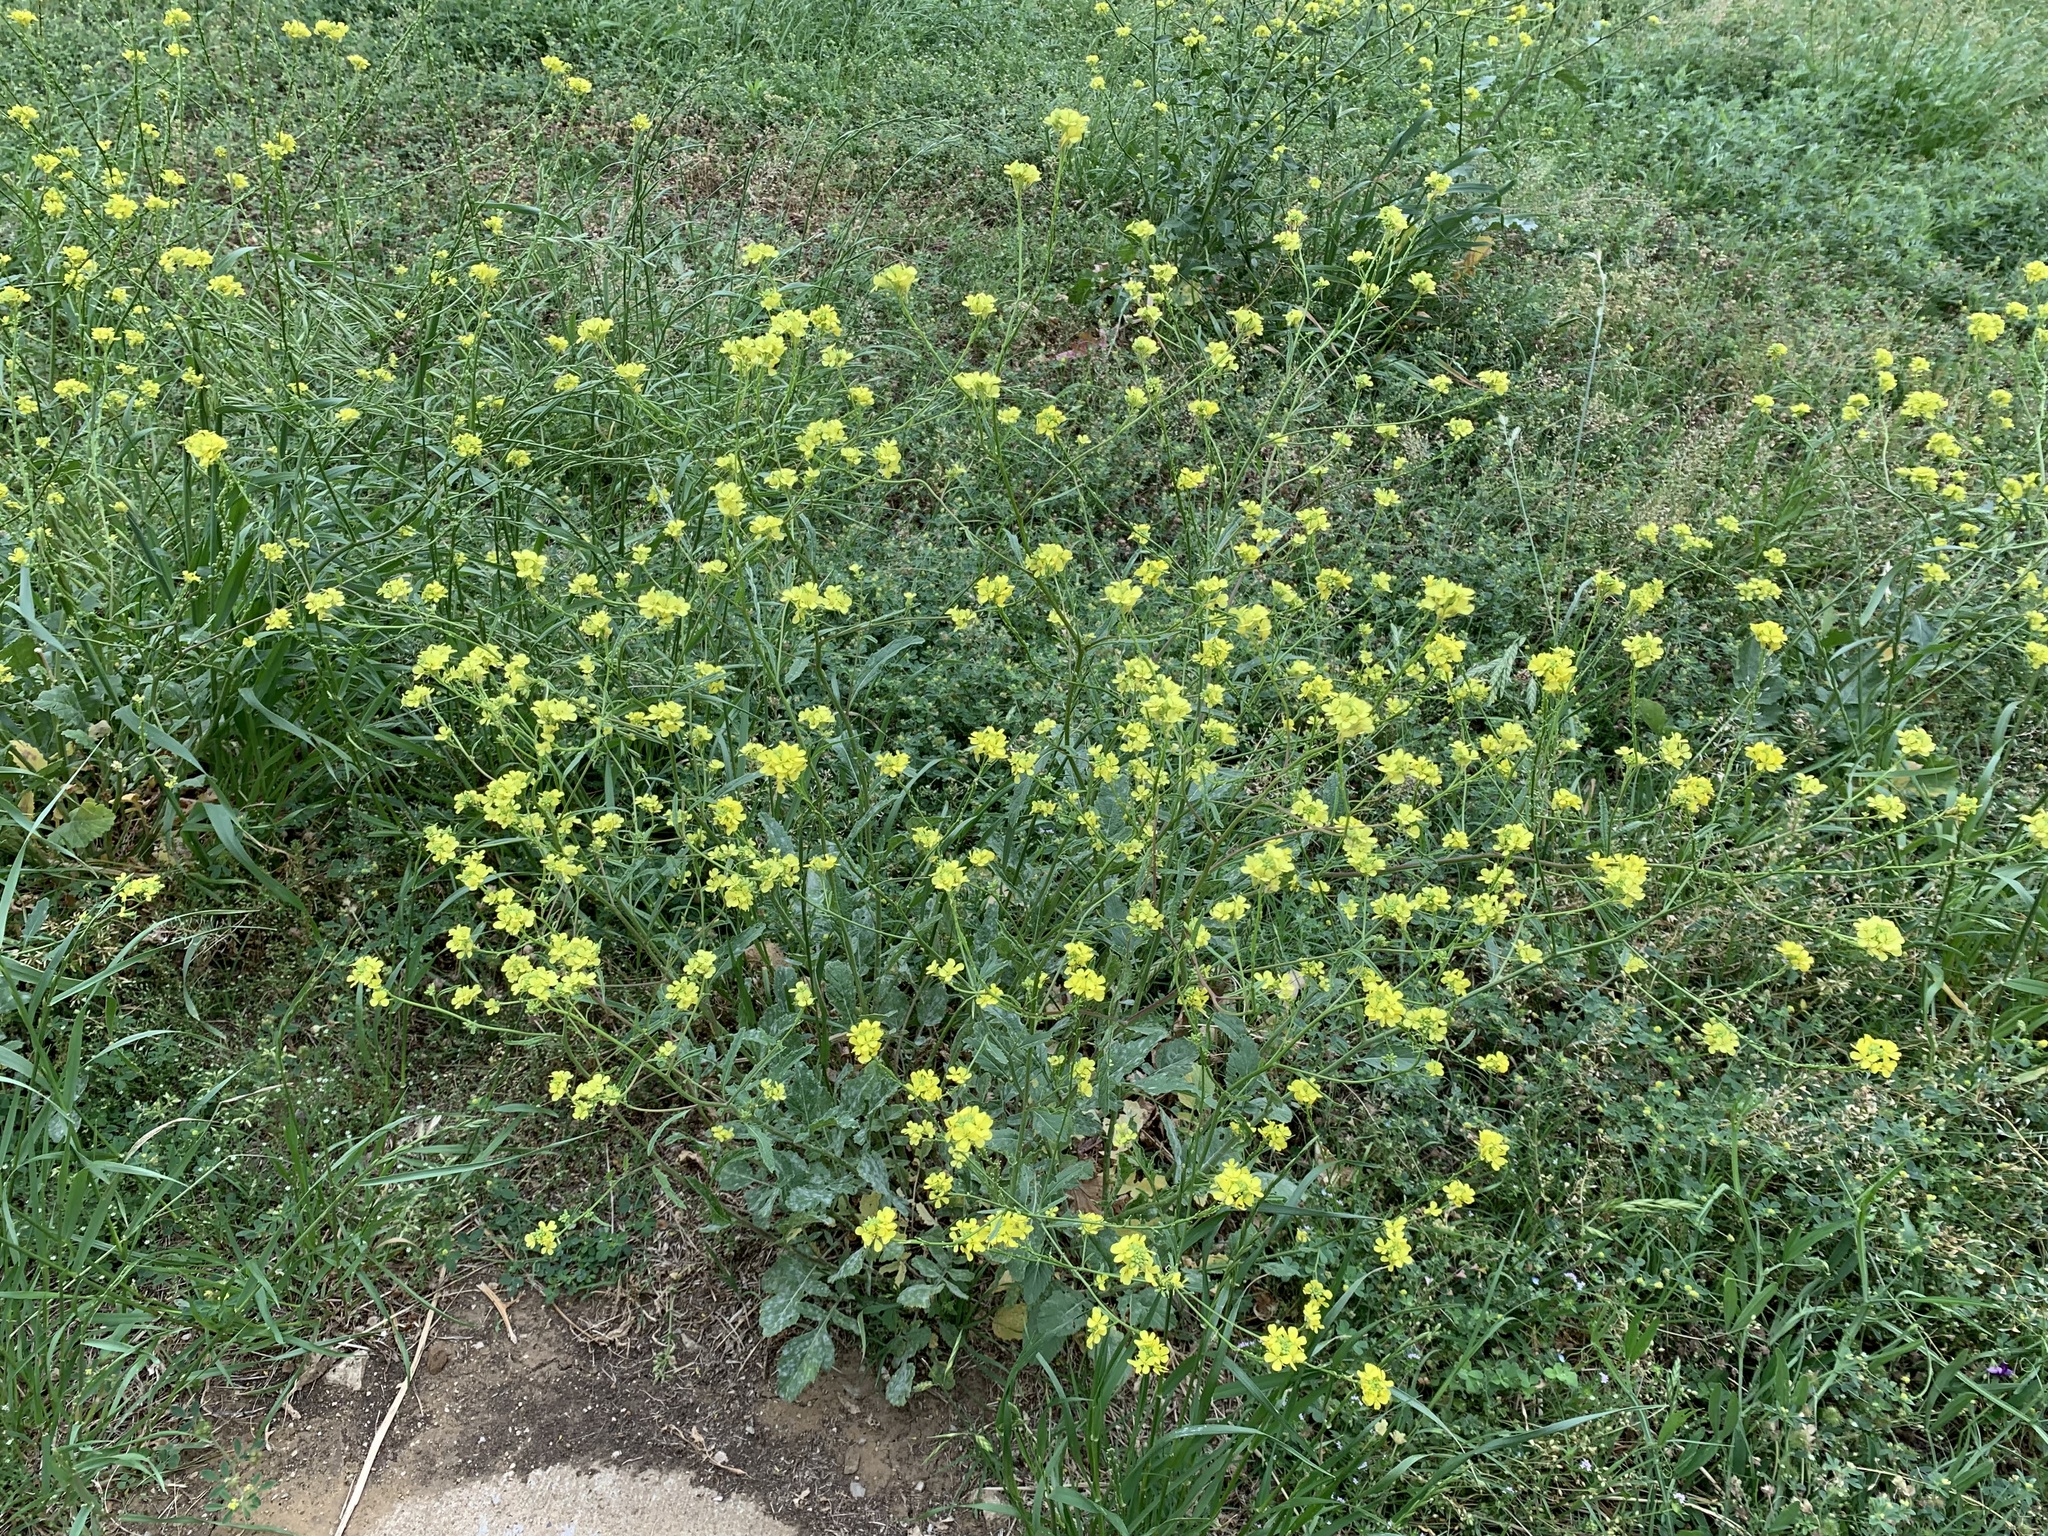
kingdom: Plantae
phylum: Tracheophyta
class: Magnoliopsida
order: Brassicales
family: Brassicaceae
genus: Rapistrum
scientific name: Rapistrum rugosum
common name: Annual bastardcabbage
